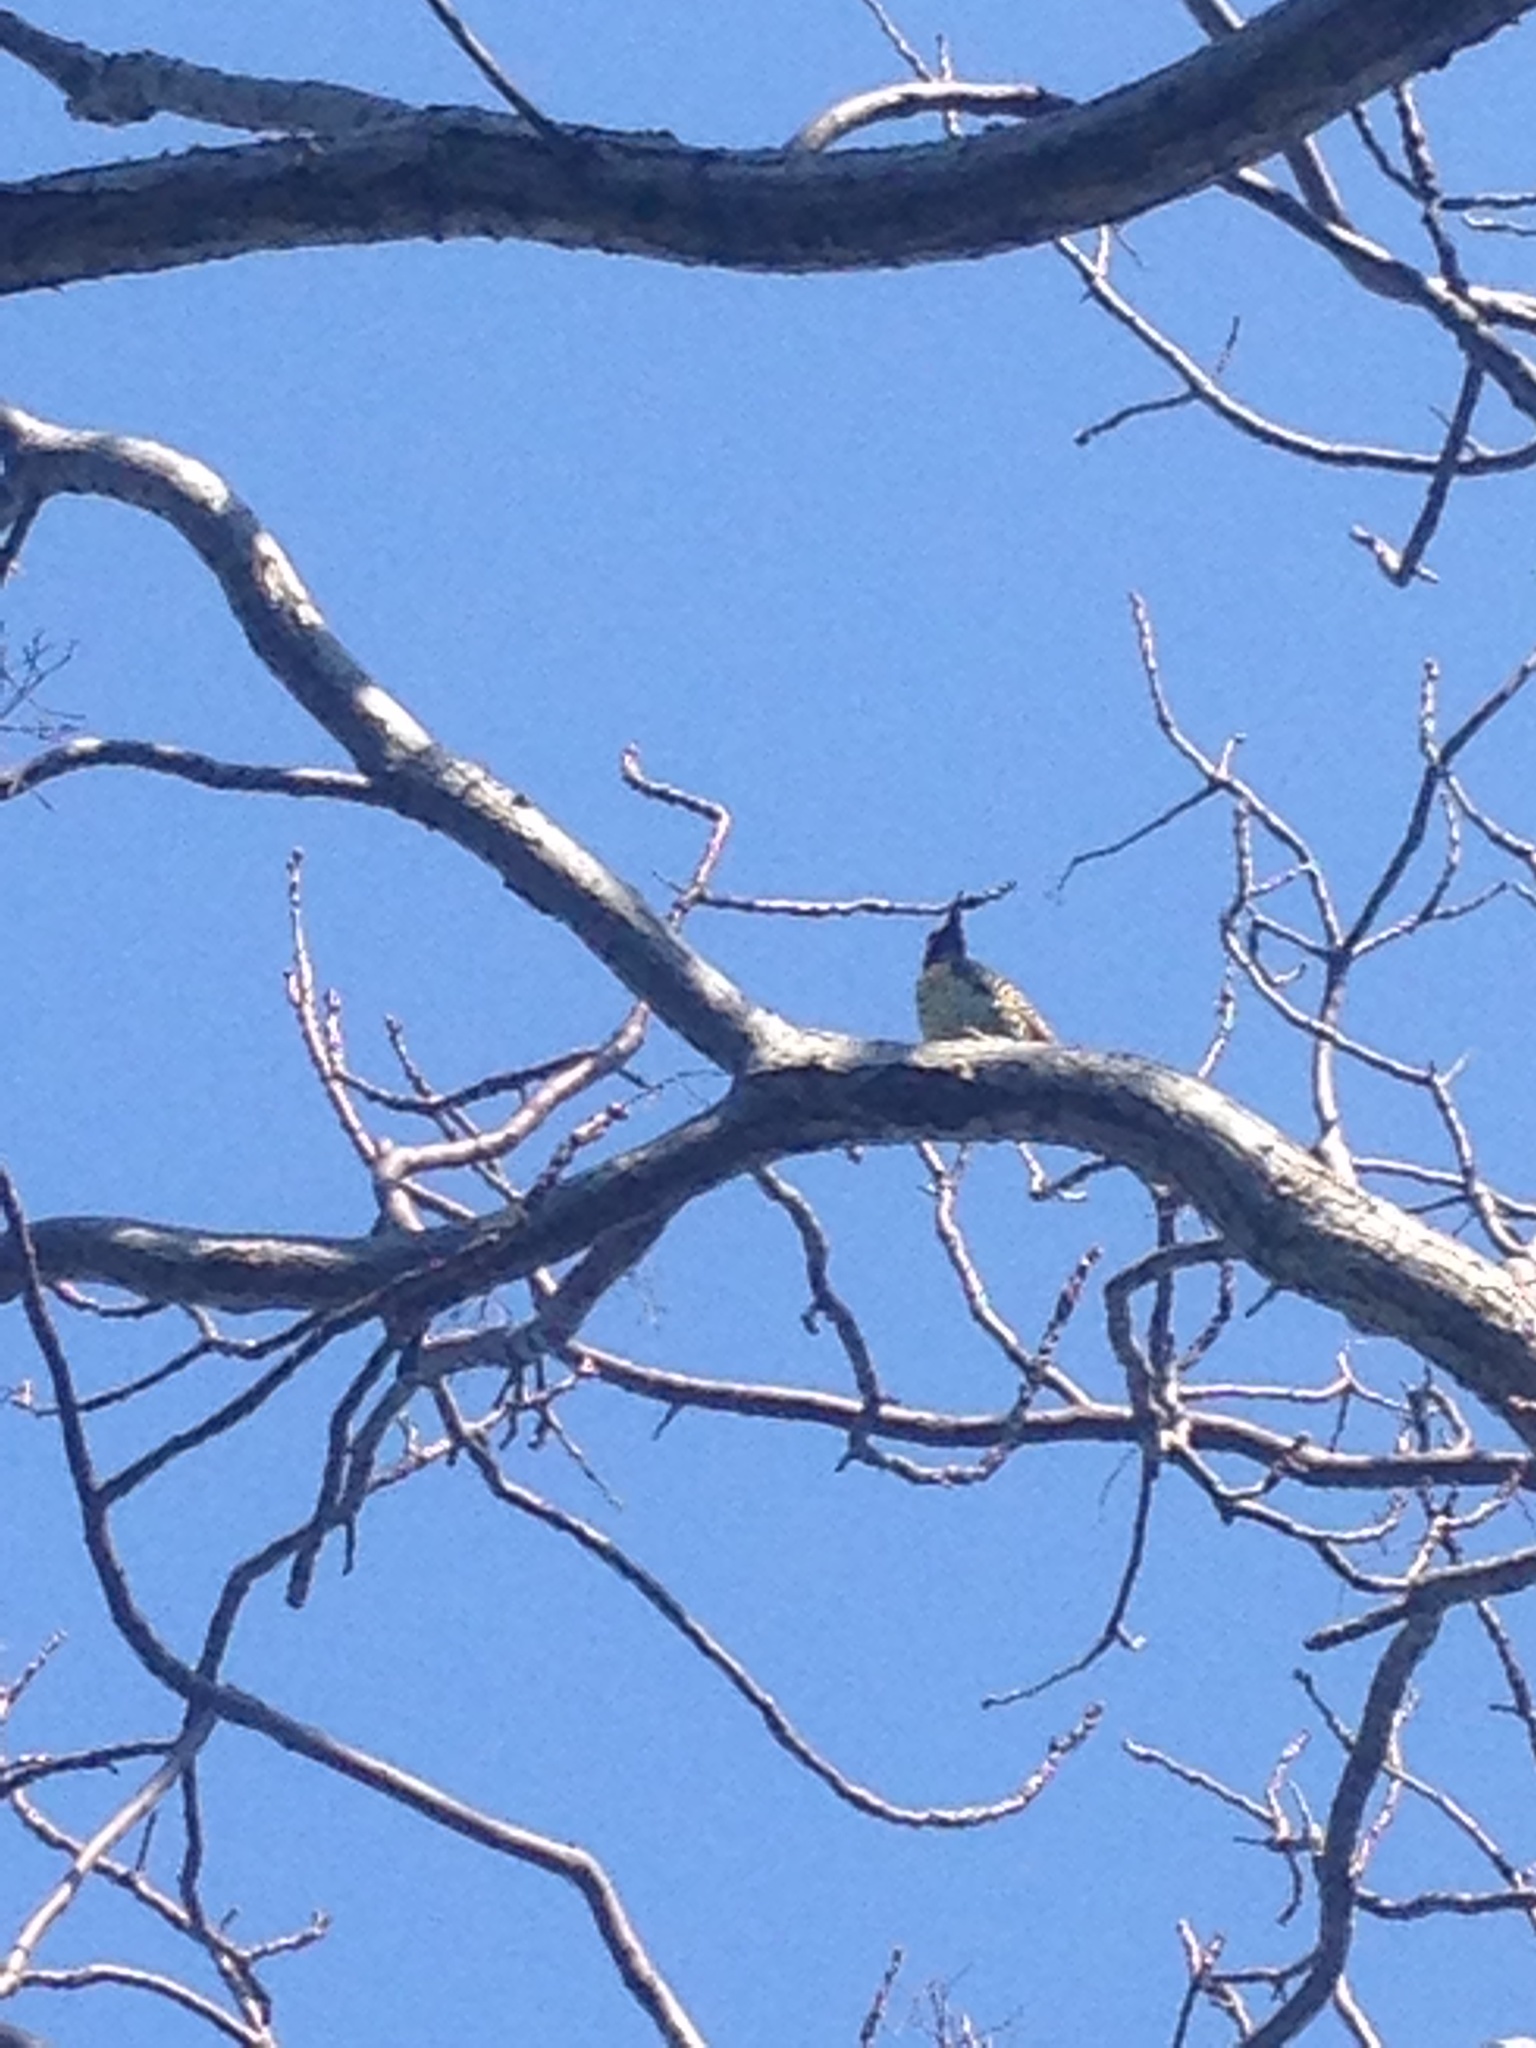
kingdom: Animalia
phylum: Chordata
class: Aves
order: Piciformes
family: Picidae
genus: Colaptes
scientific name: Colaptes melanochloros
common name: Green-barred woodpecker
